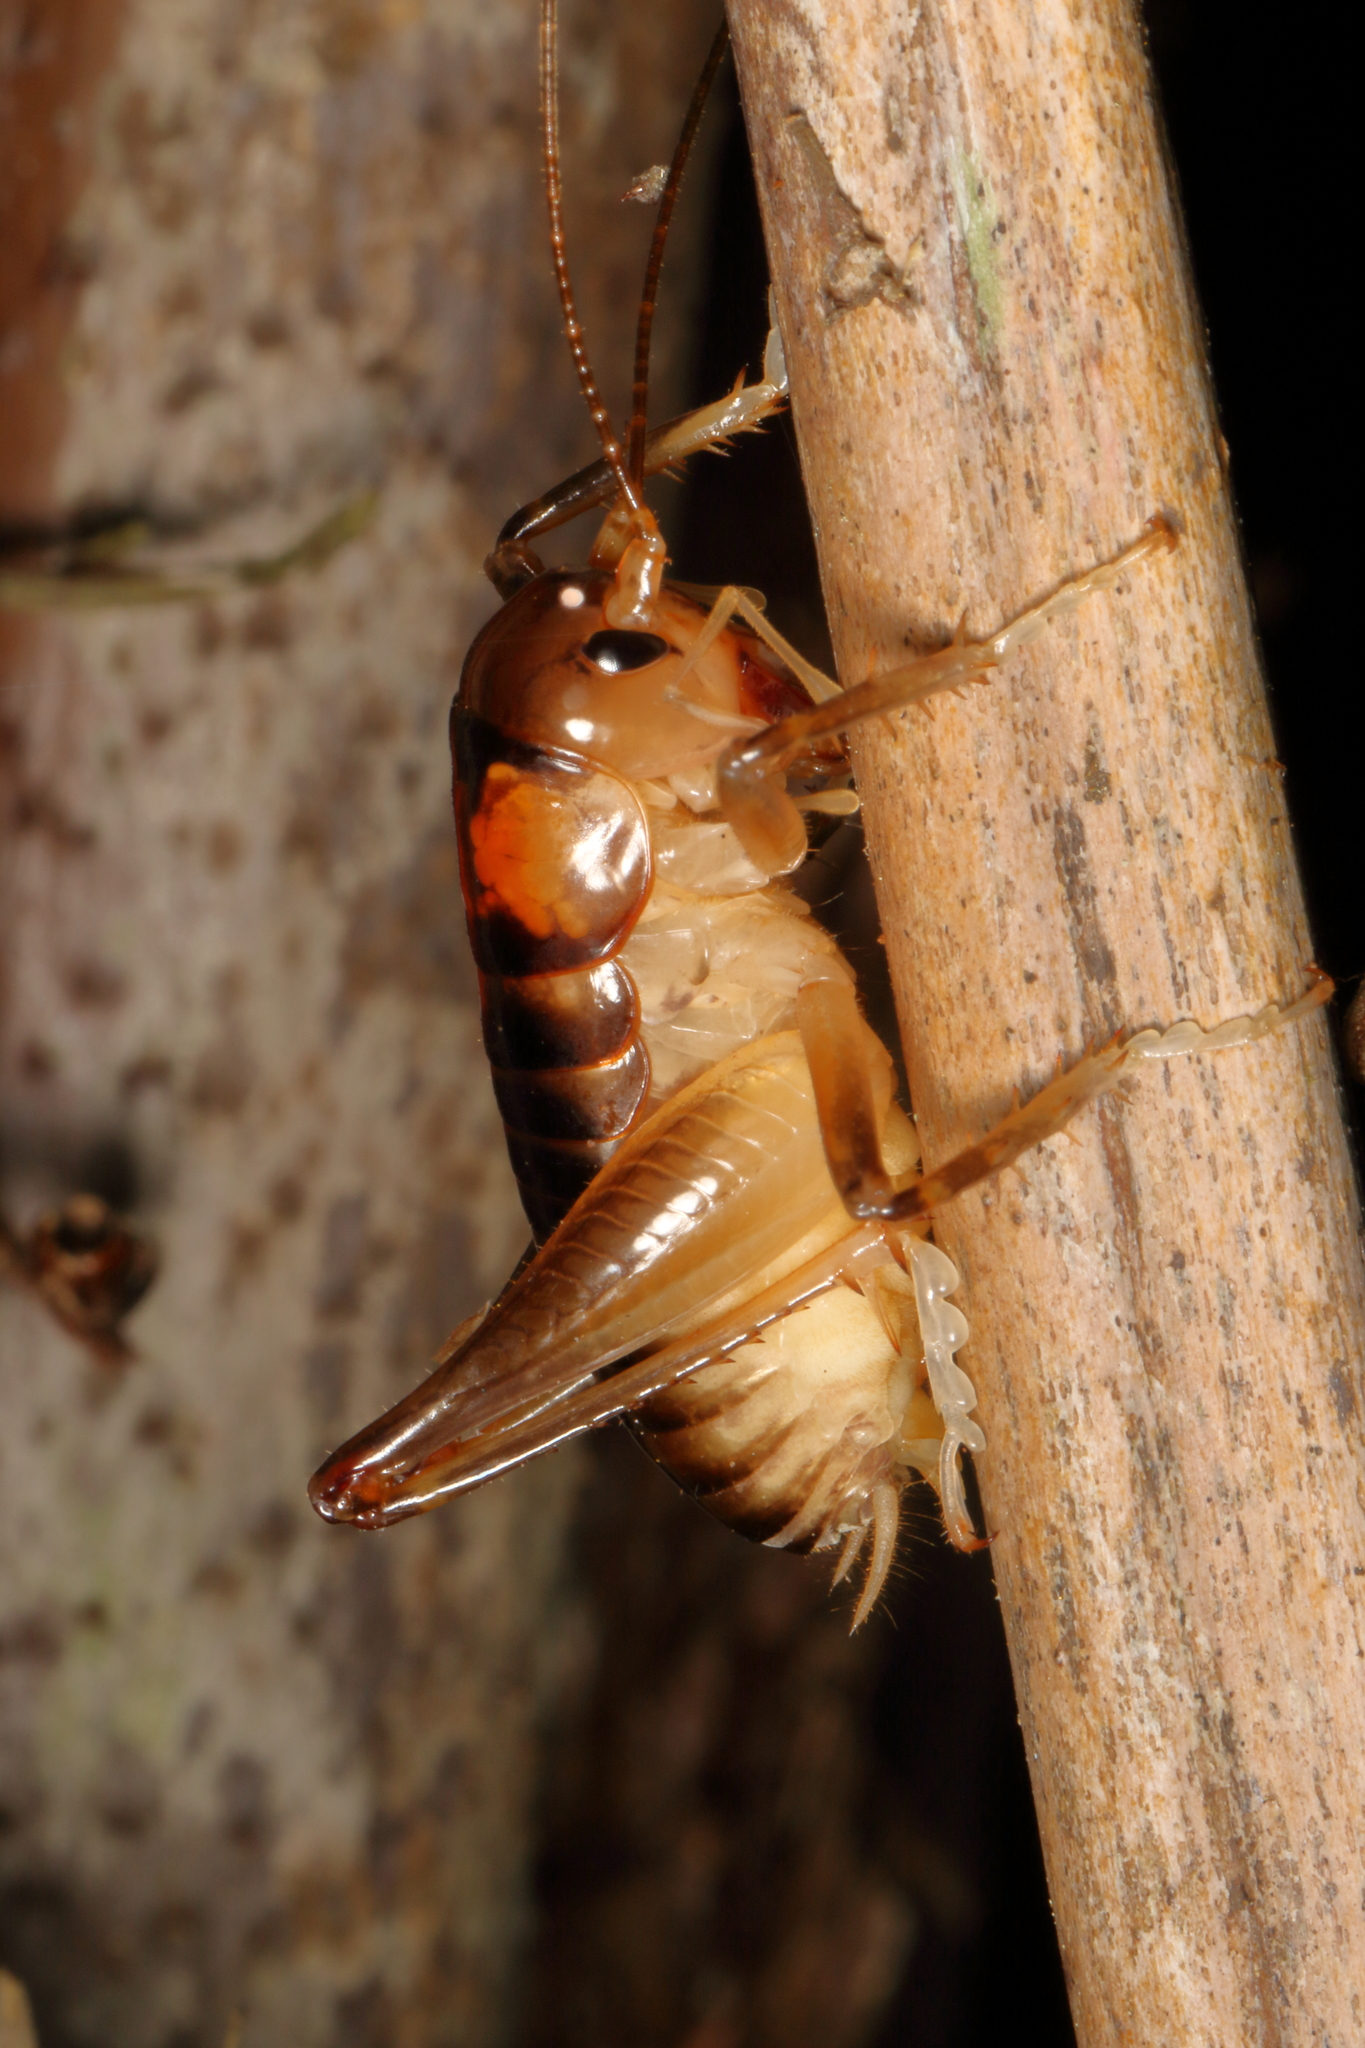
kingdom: Animalia
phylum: Arthropoda
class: Insecta
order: Orthoptera
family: Anostostomatidae
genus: Hemiandrus
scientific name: Hemiandrus pallitarsis
